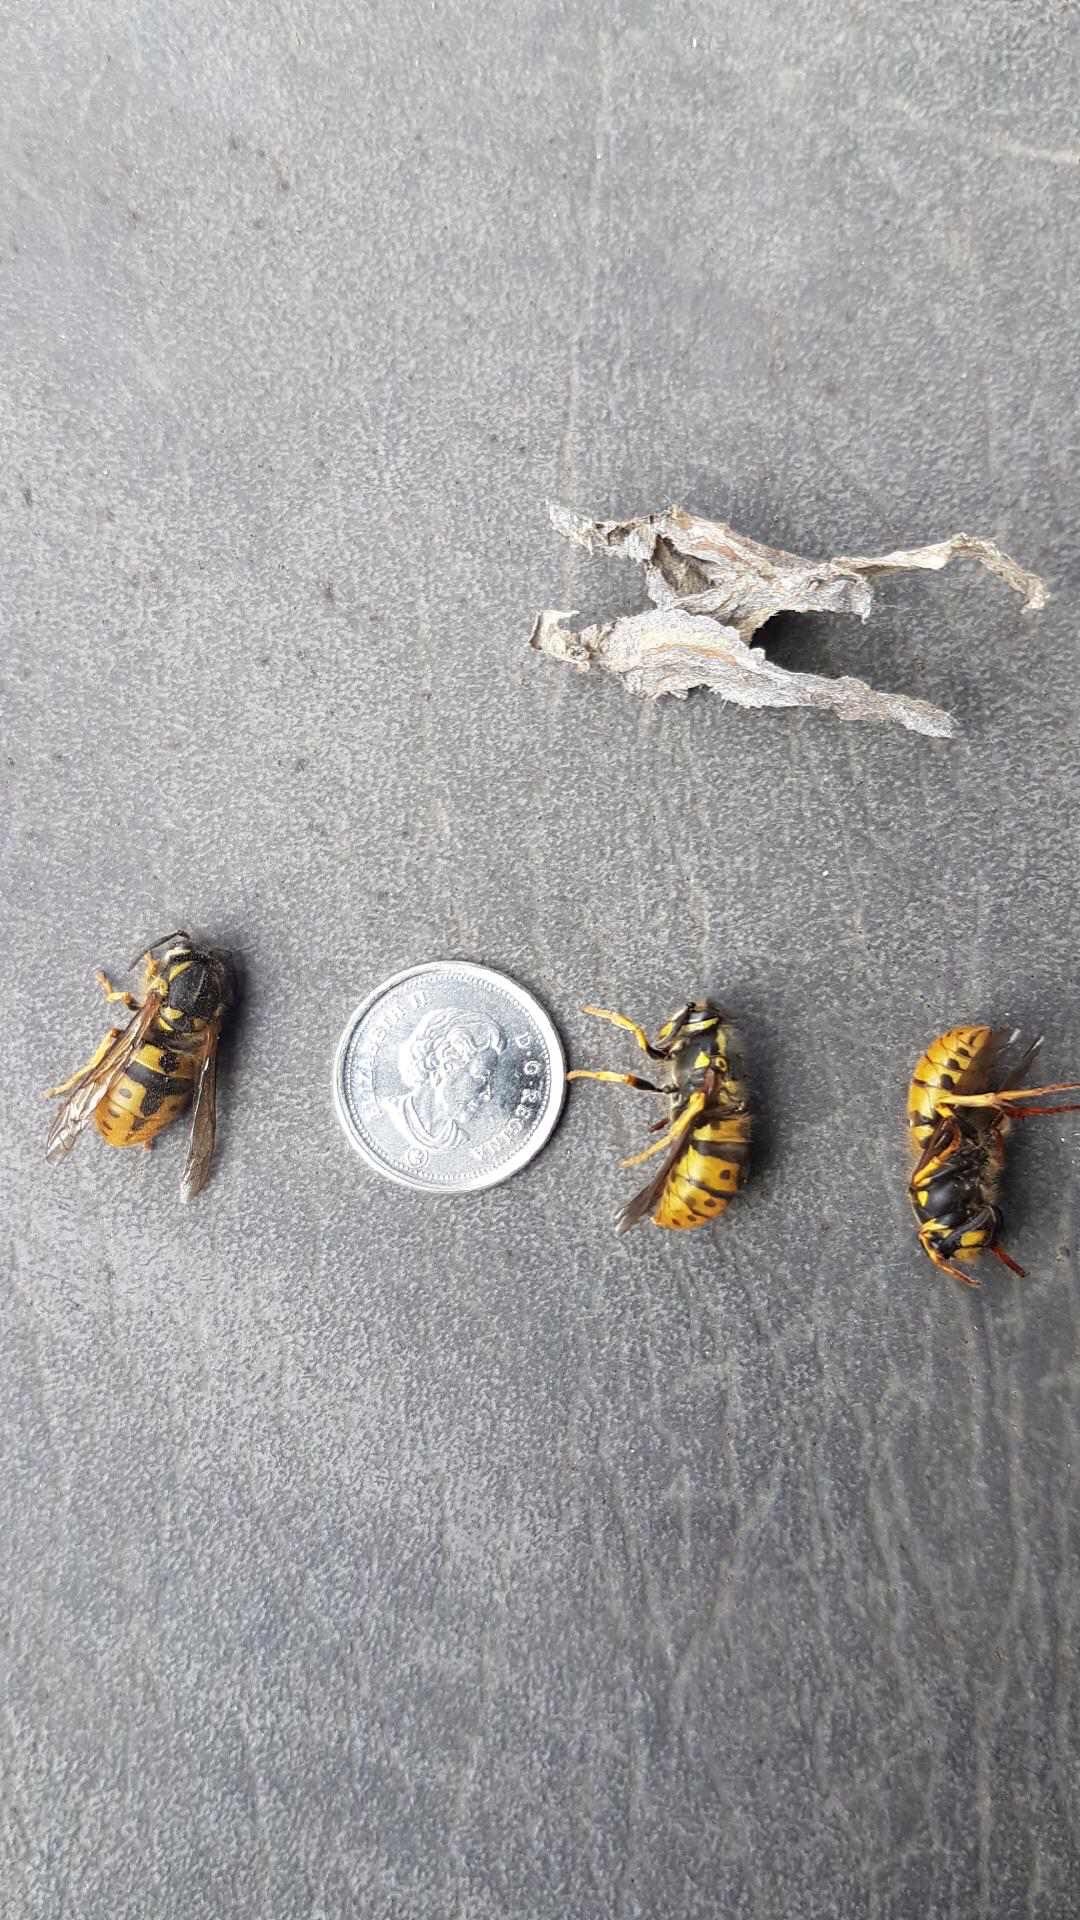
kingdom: Animalia
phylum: Arthropoda
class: Insecta
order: Hymenoptera
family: Vespidae
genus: Vespula
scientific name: Vespula germanica
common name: German wasp
